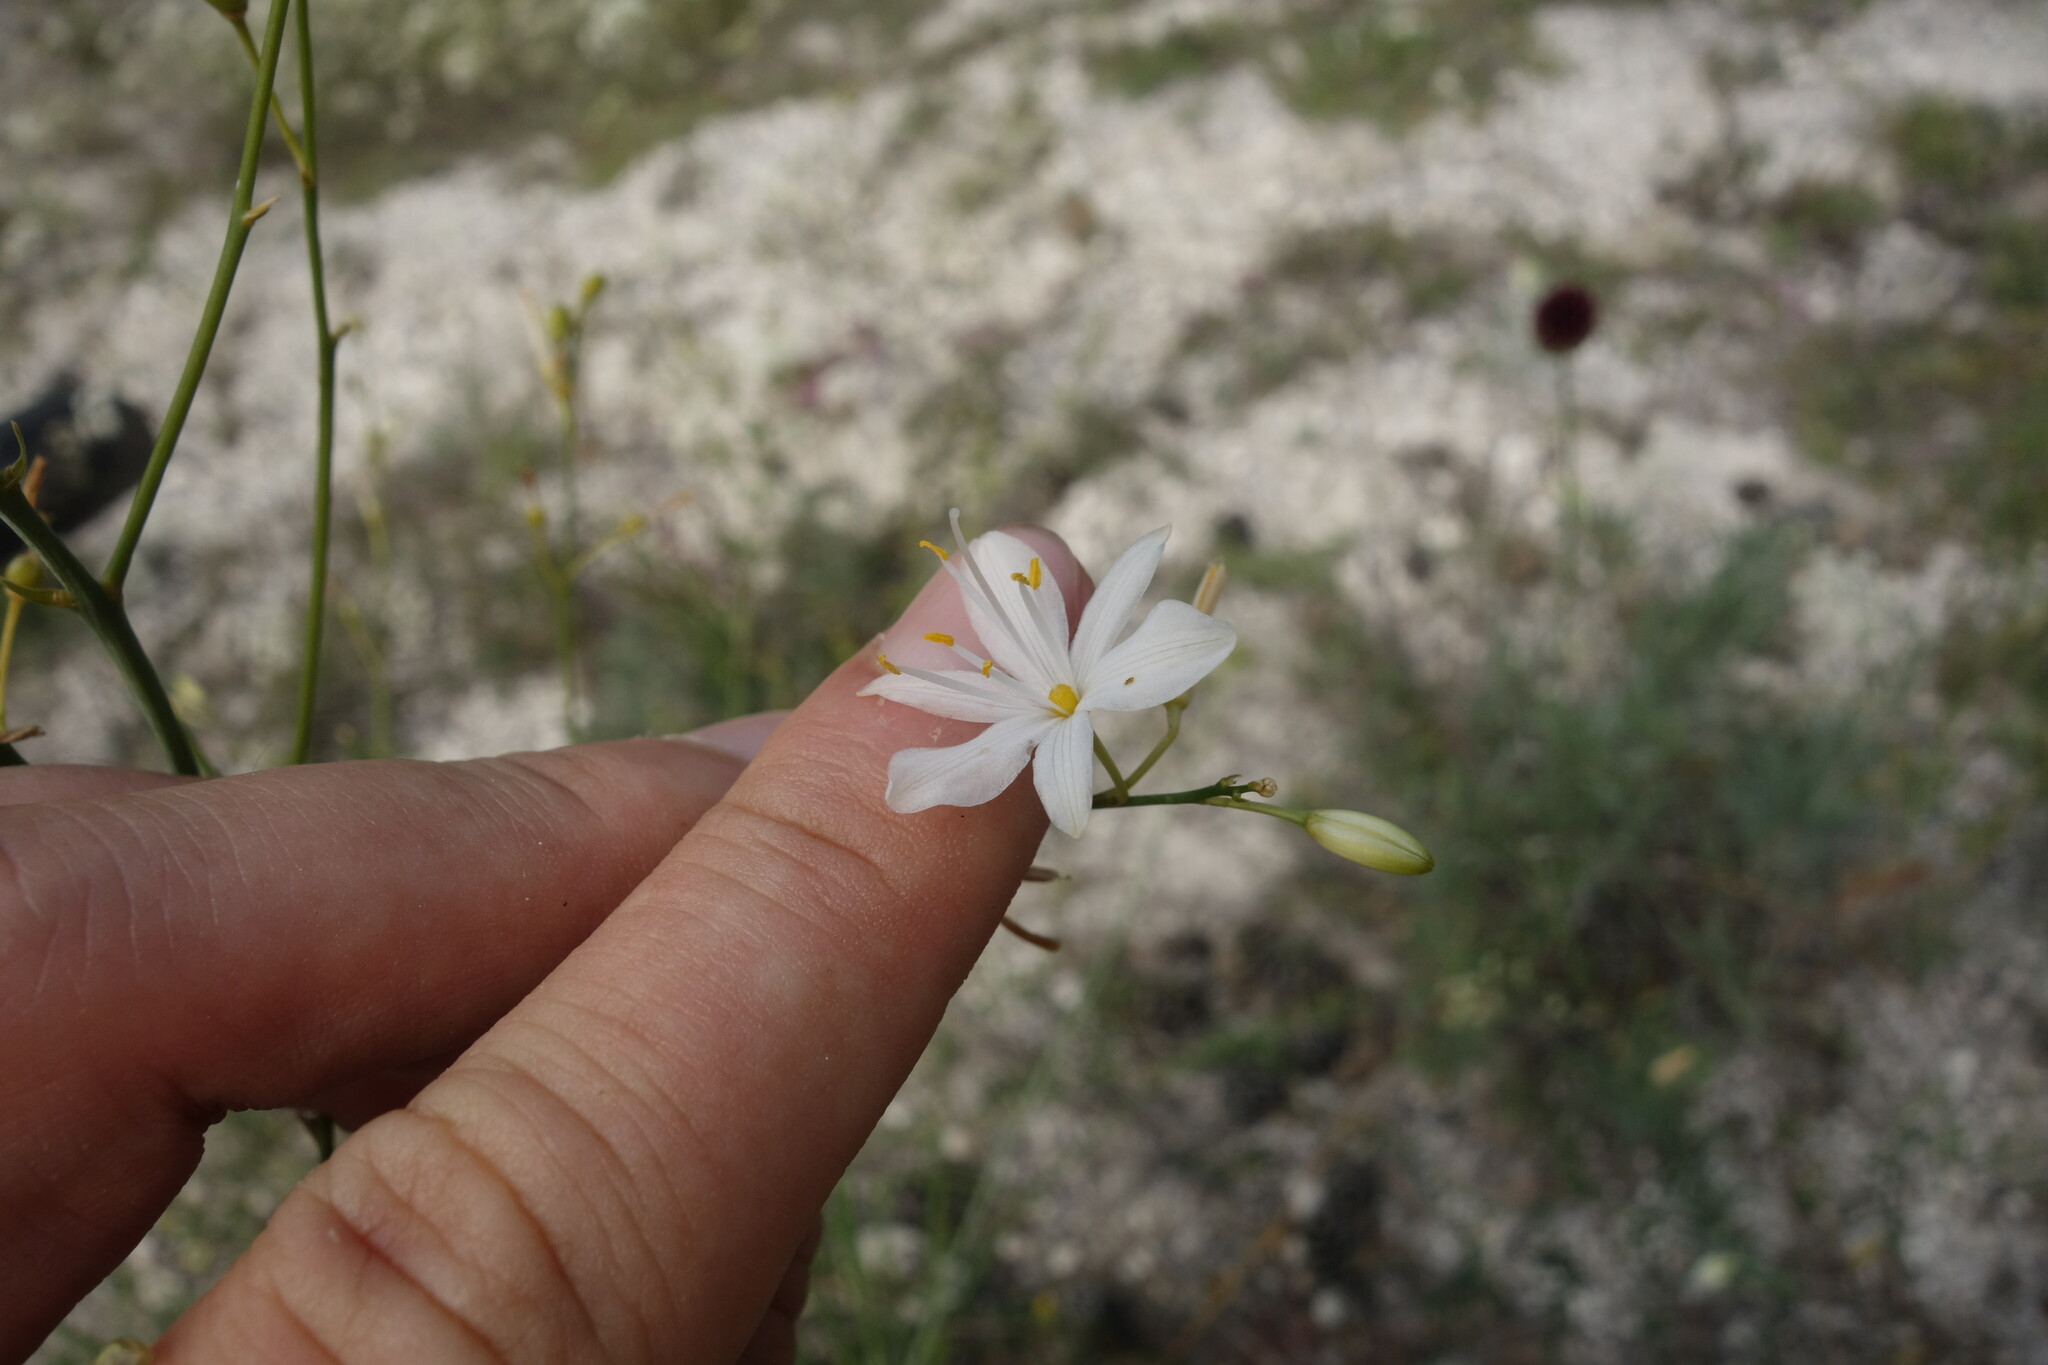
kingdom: Plantae
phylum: Tracheophyta
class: Liliopsida
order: Asparagales
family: Asparagaceae
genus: Anthericum
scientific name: Anthericum ramosum
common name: Branched st. bernard's-lily
